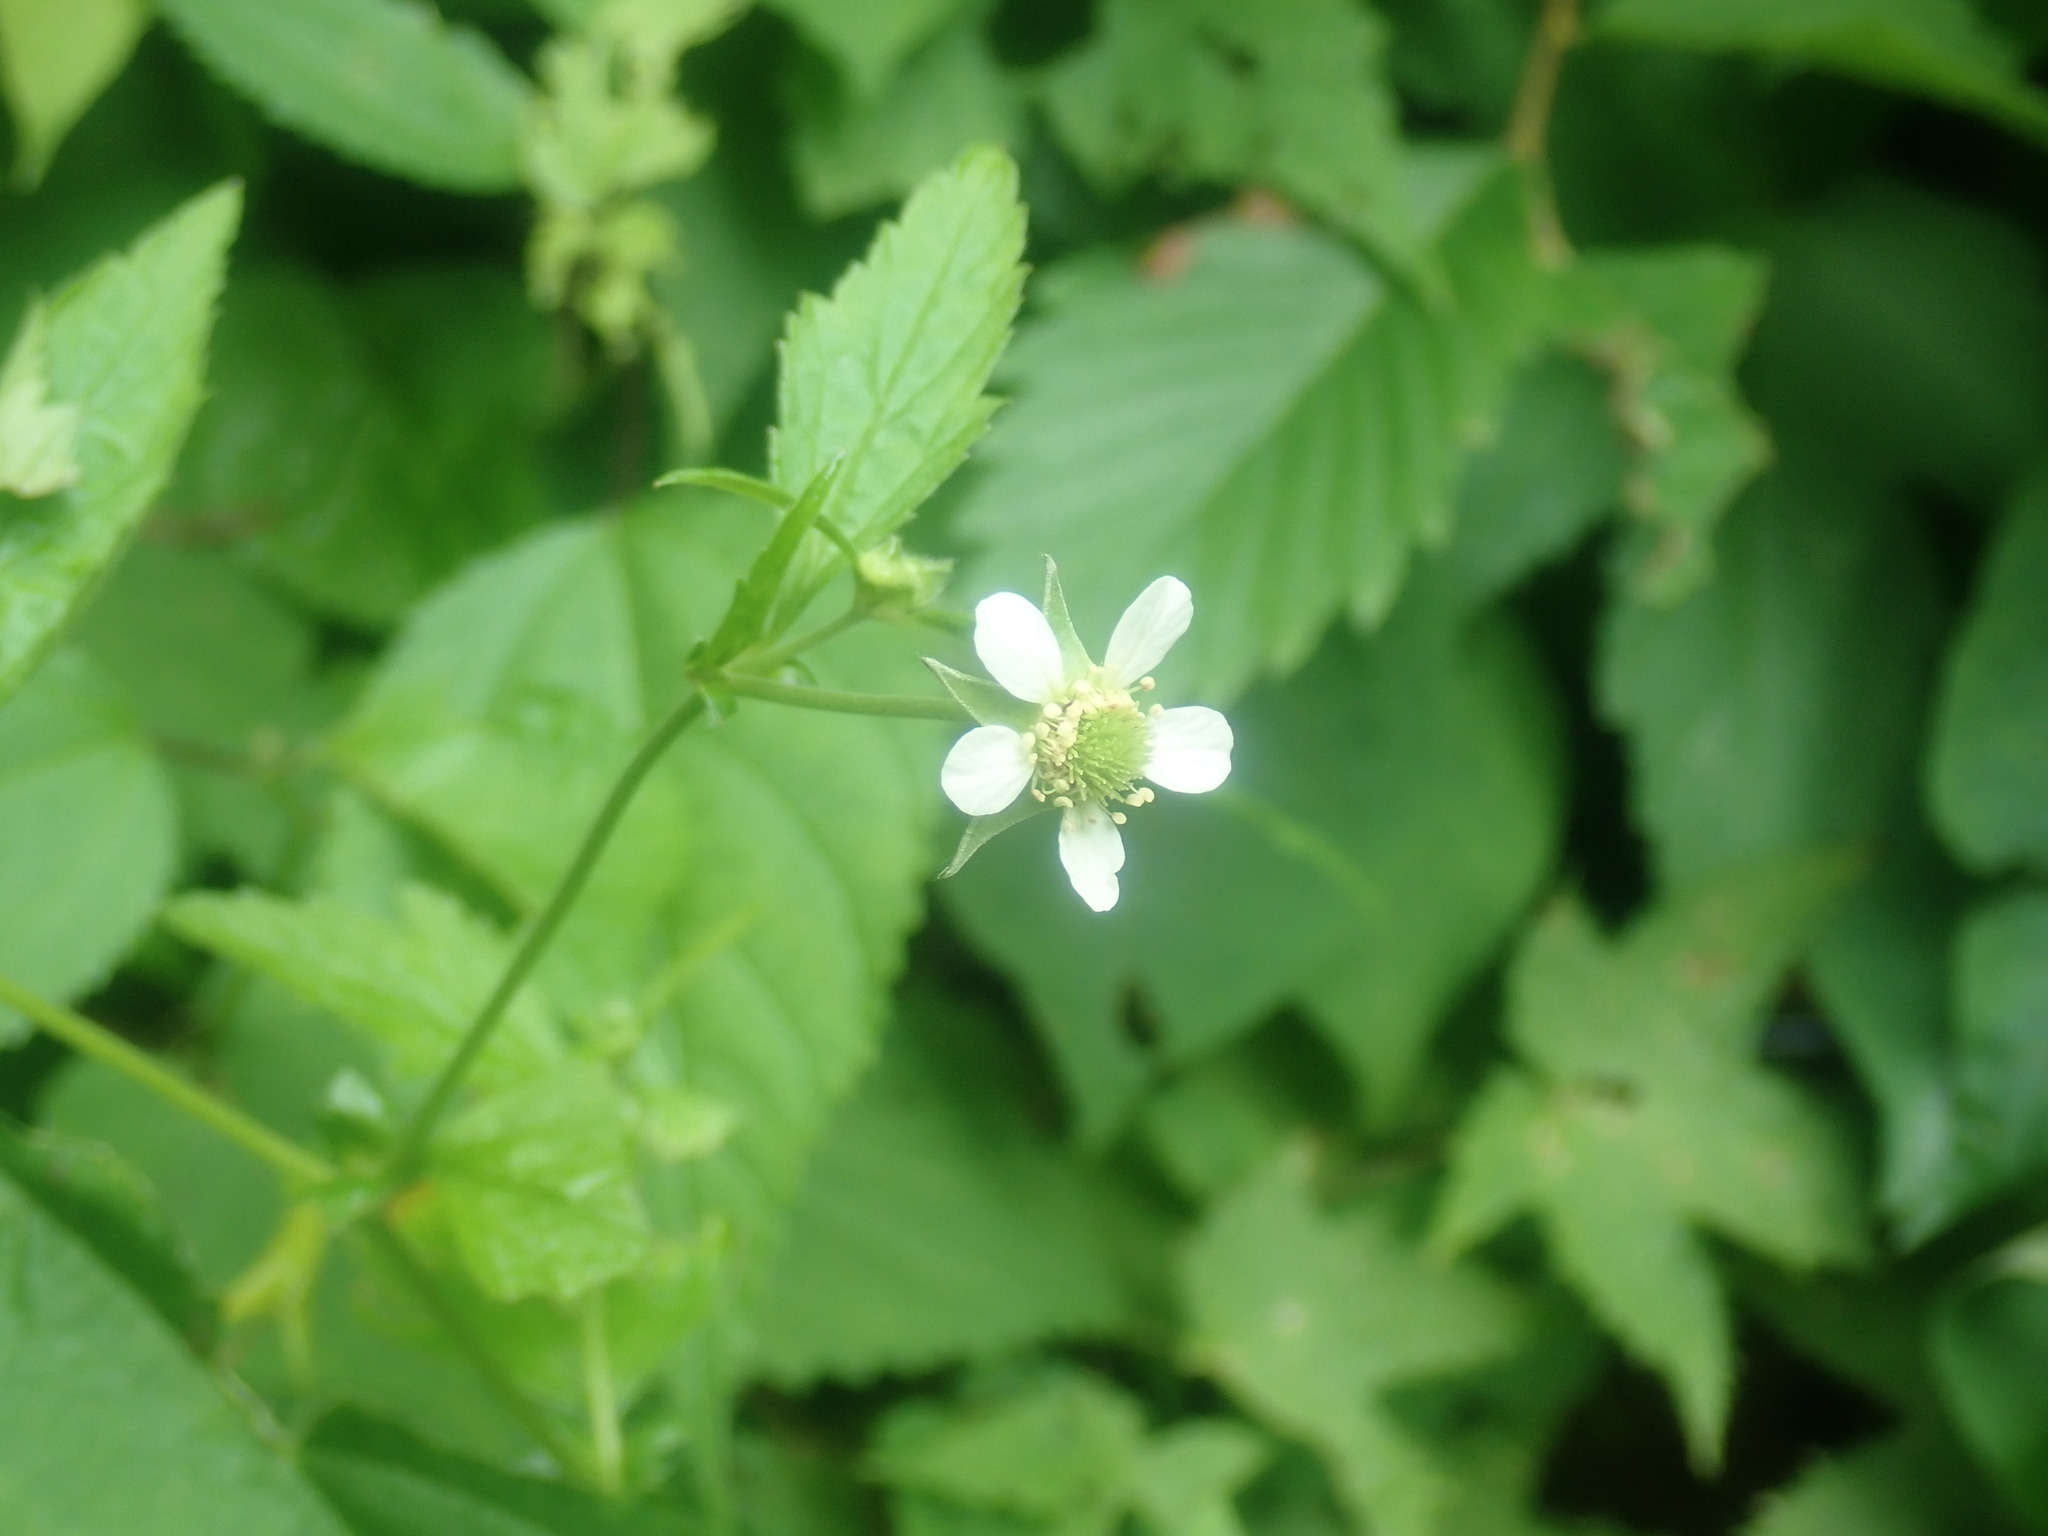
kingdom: Plantae
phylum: Tracheophyta
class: Magnoliopsida
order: Rosales
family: Rosaceae
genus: Geum
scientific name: Geum canadense
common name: White avens
